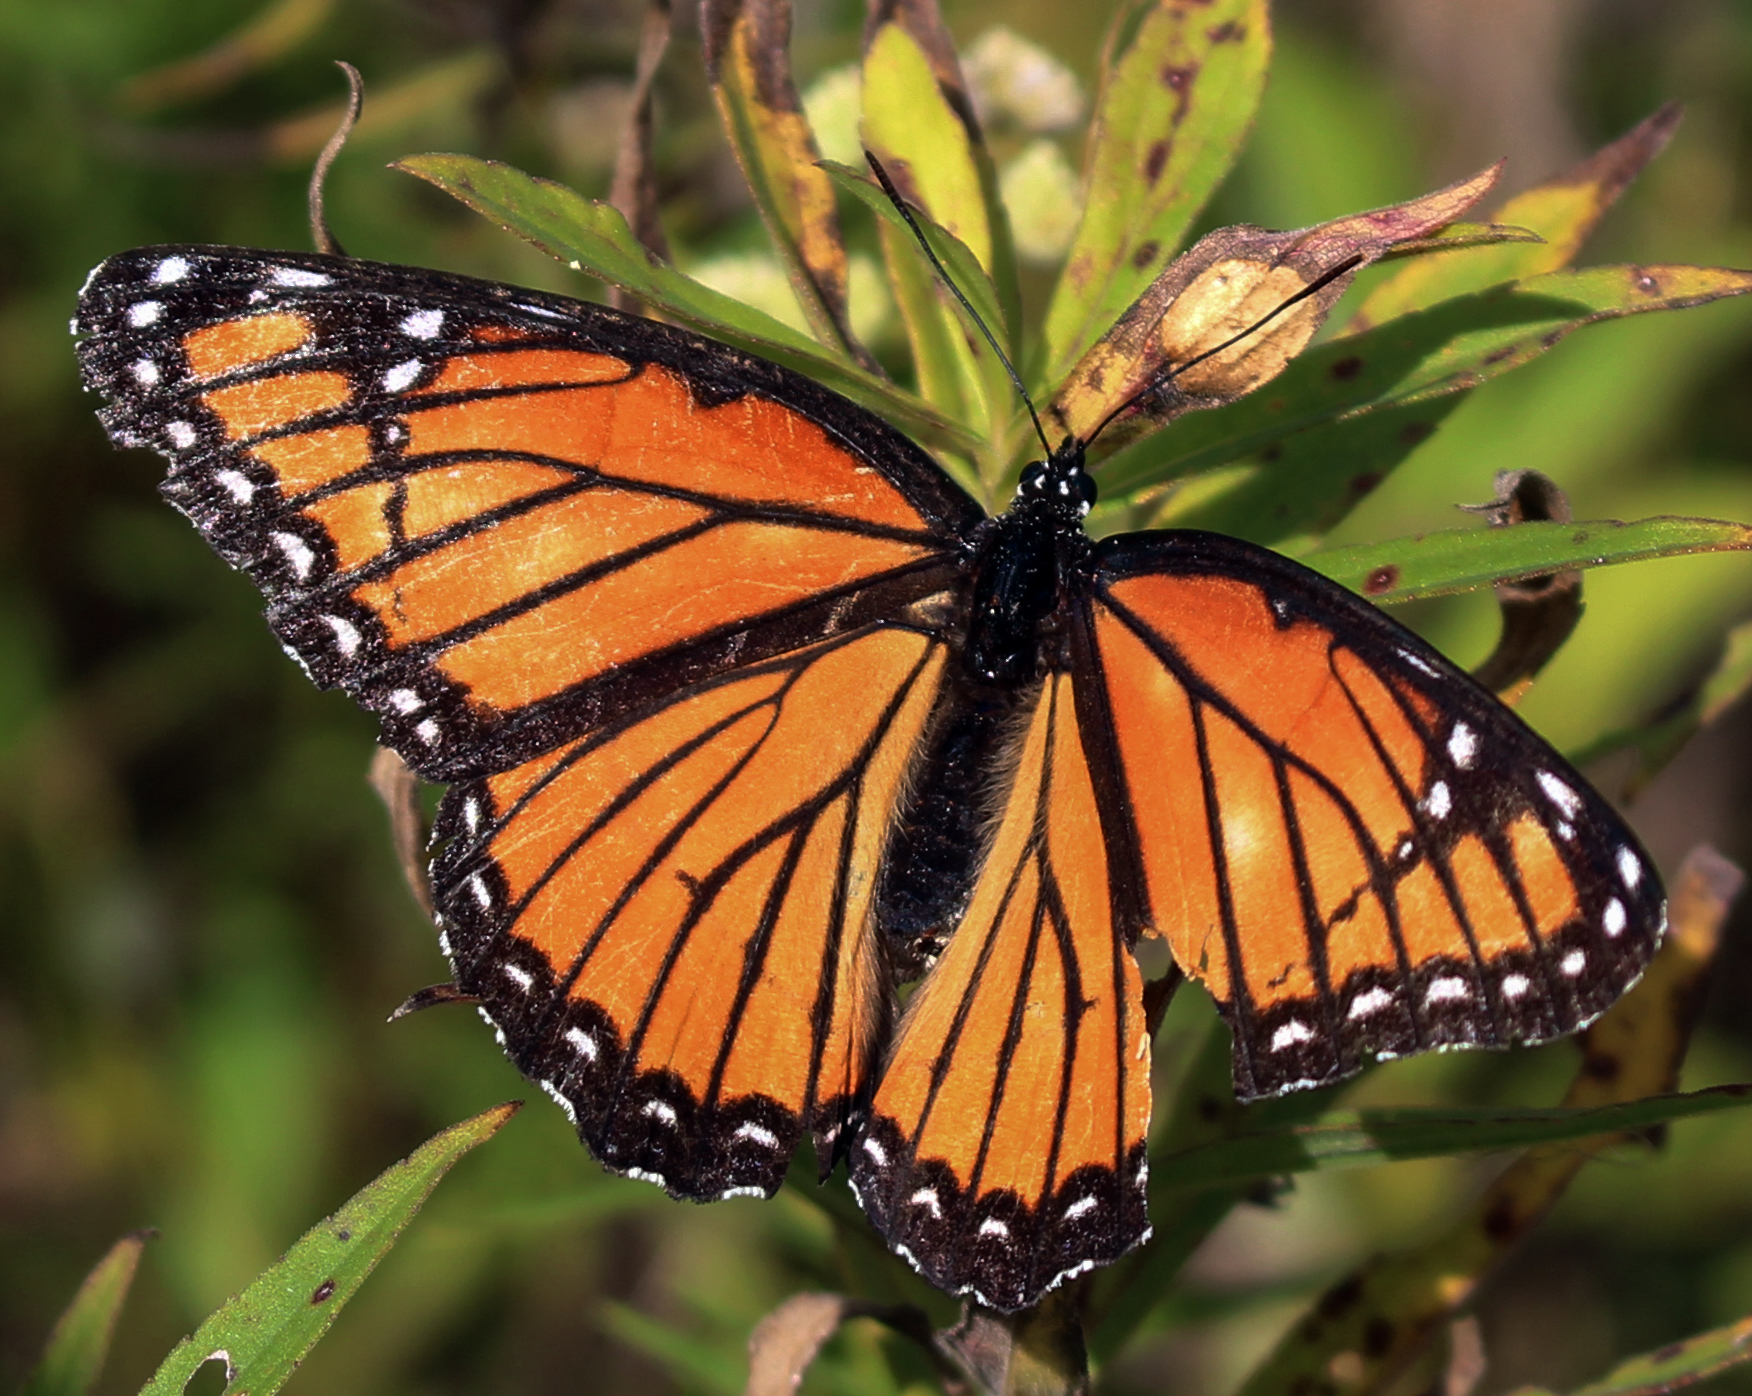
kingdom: Animalia
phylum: Arthropoda
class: Insecta
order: Lepidoptera
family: Nymphalidae
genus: Limenitis
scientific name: Limenitis archippus
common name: Viceroy
